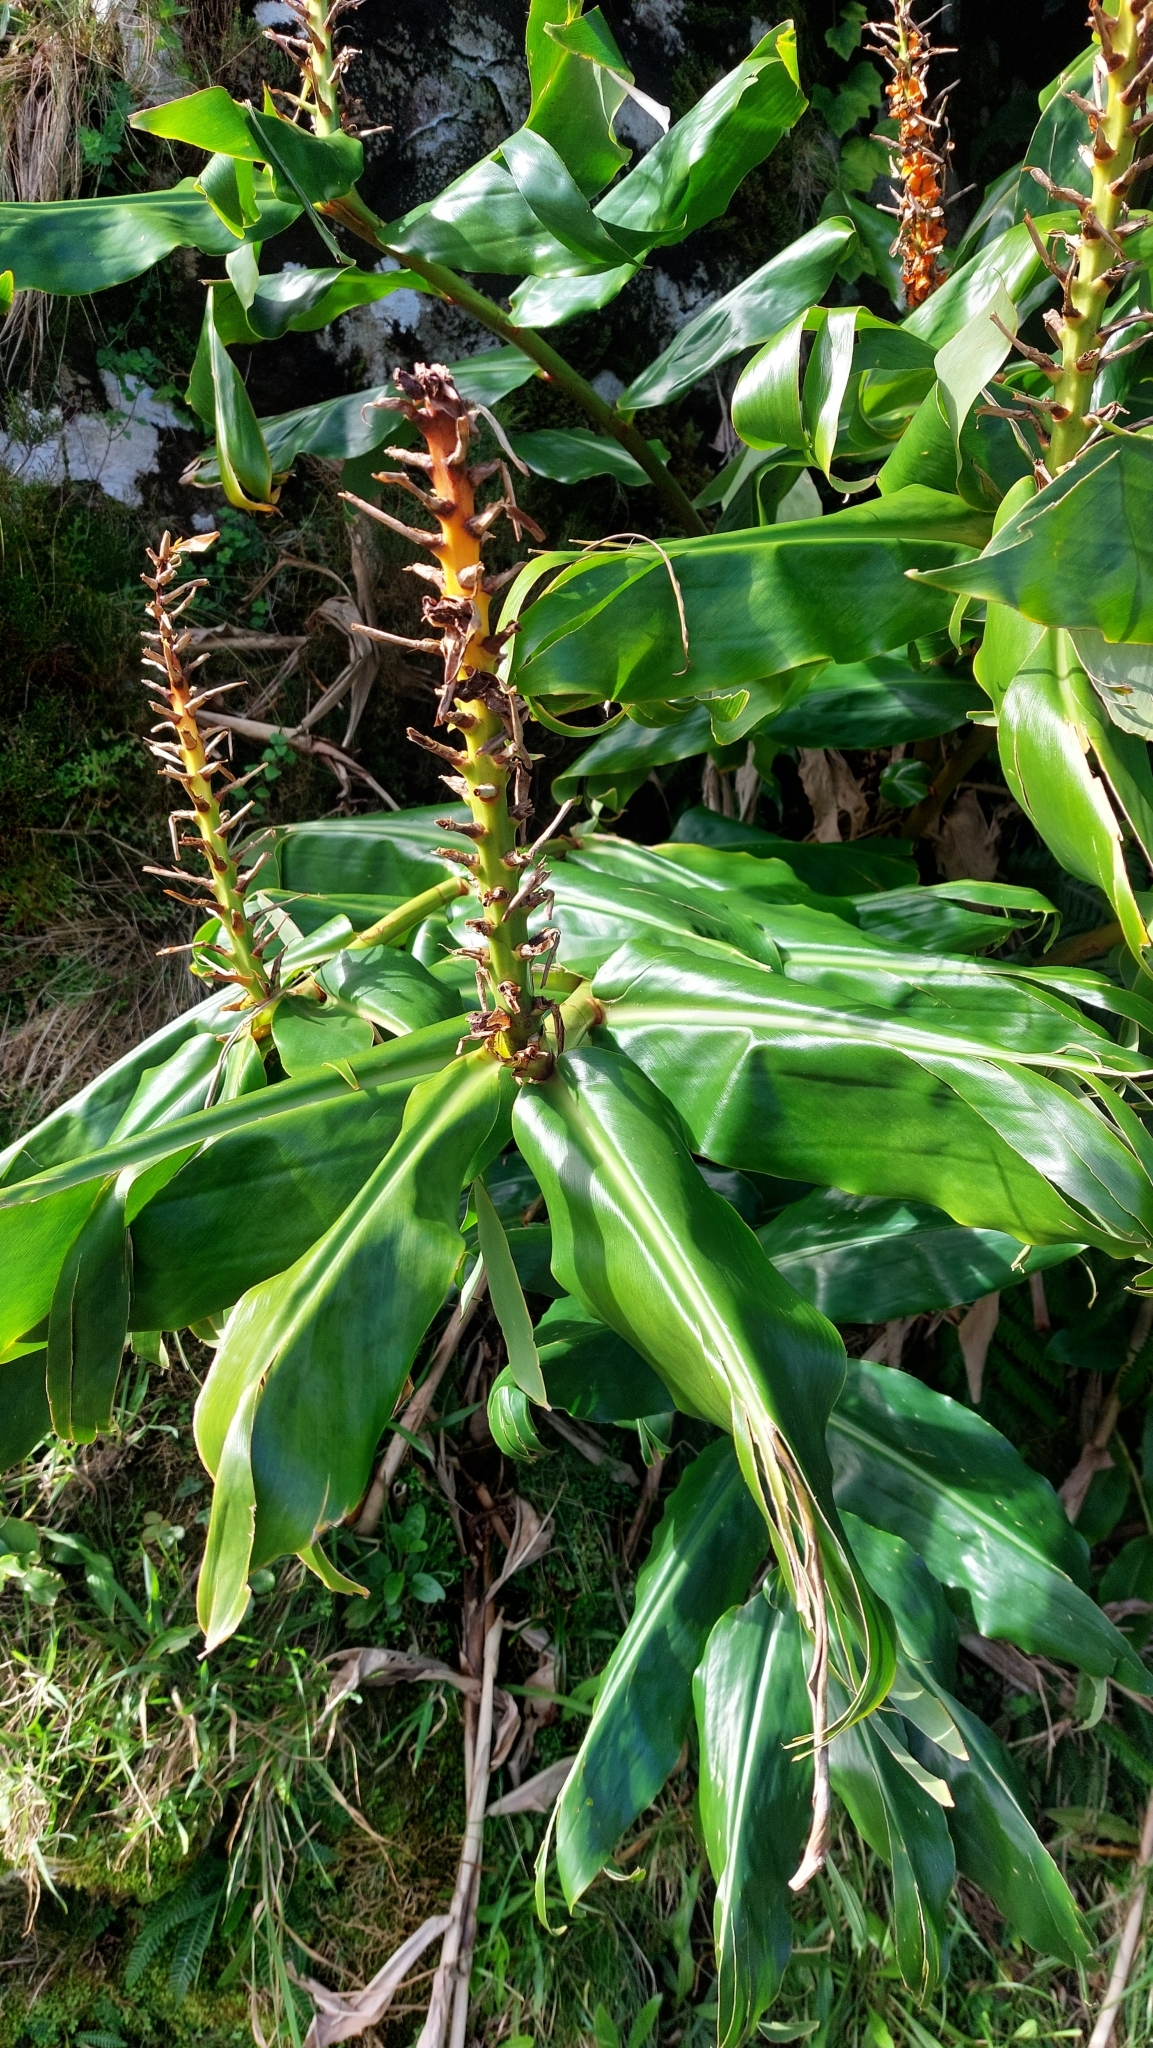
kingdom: Plantae
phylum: Tracheophyta
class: Liliopsida
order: Zingiberales
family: Zingiberaceae
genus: Hedychium
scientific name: Hedychium gardnerianum
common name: Himalayan ginger
